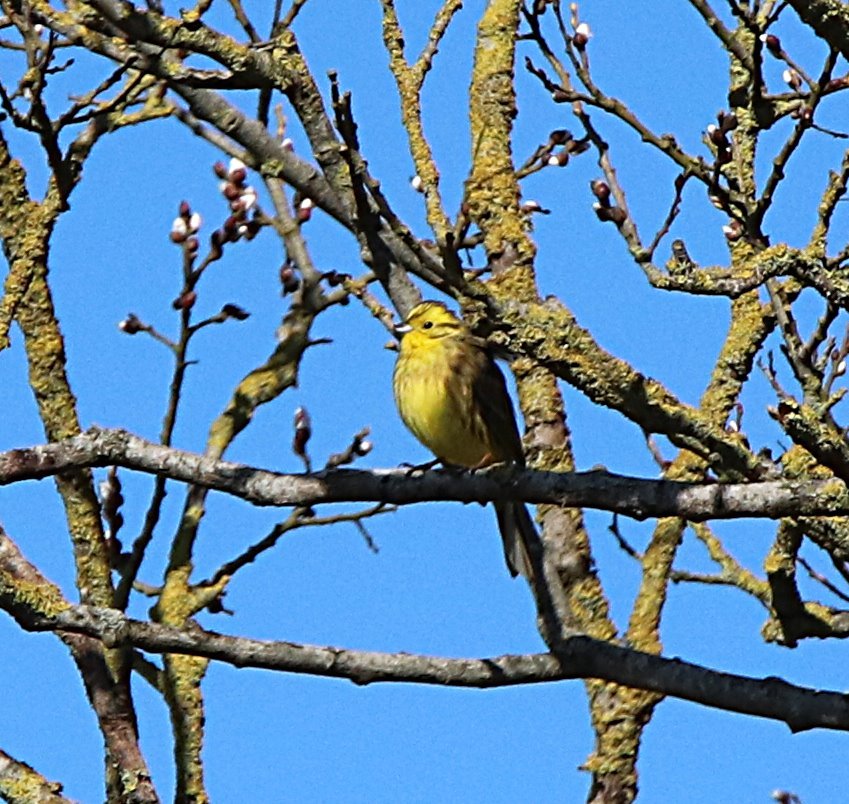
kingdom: Animalia
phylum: Chordata
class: Aves
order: Passeriformes
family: Emberizidae
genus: Emberiza
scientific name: Emberiza citrinella
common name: Yellowhammer
